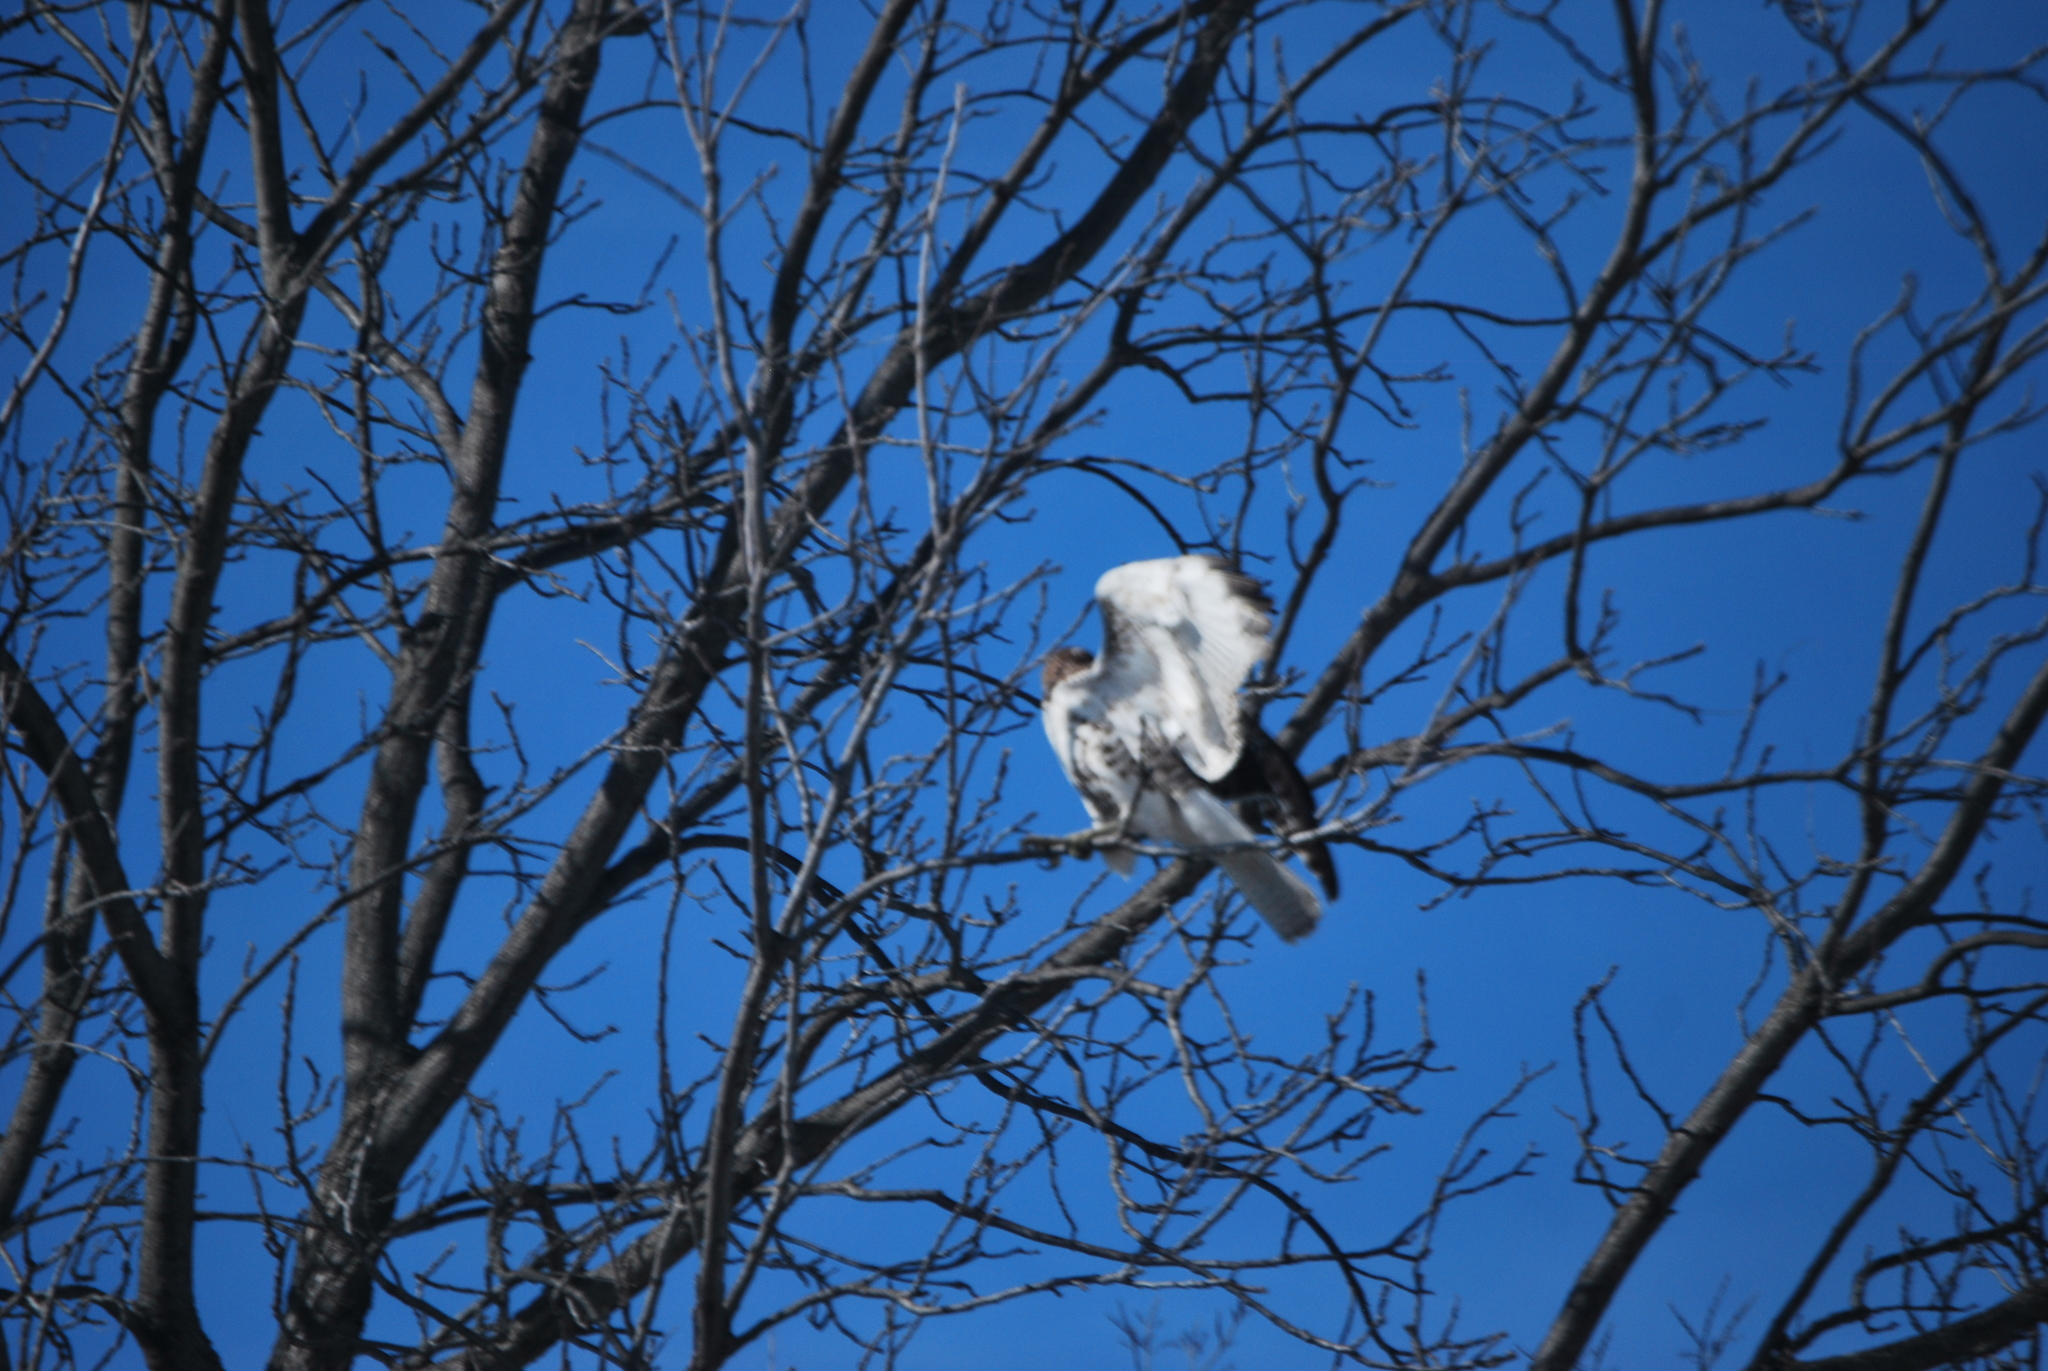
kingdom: Animalia
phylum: Chordata
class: Aves
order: Accipitriformes
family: Accipitridae
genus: Buteo
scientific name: Buteo jamaicensis
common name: Red-tailed hawk
